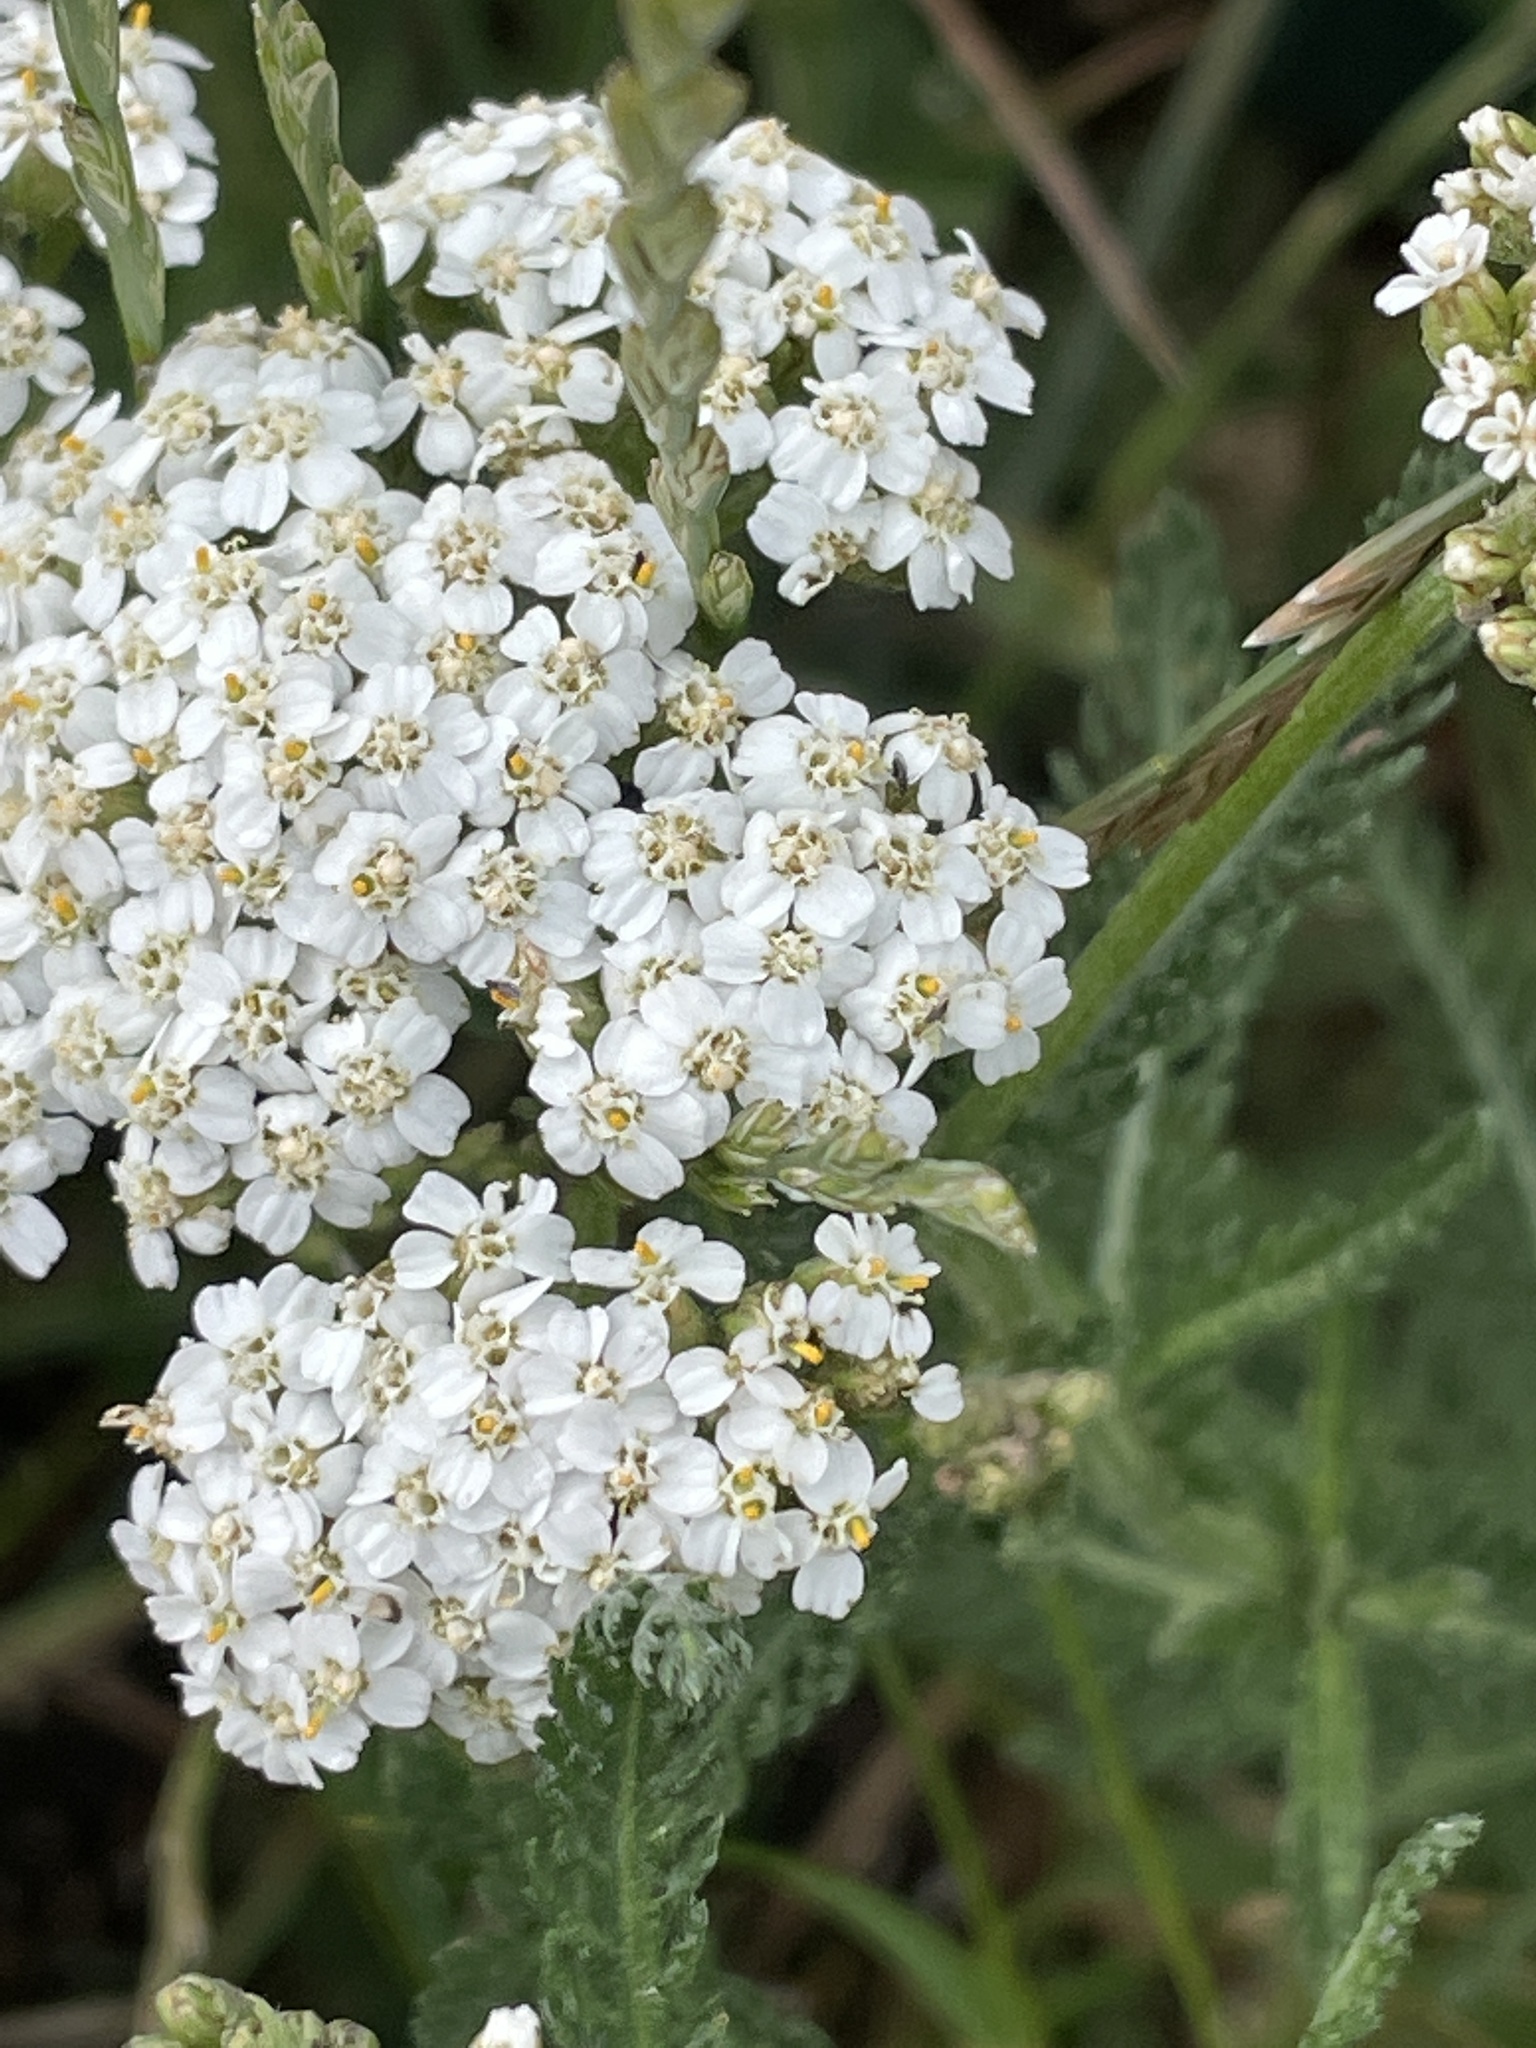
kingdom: Plantae
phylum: Tracheophyta
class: Magnoliopsida
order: Asterales
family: Asteraceae
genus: Achillea
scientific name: Achillea millefolium
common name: Yarrow
